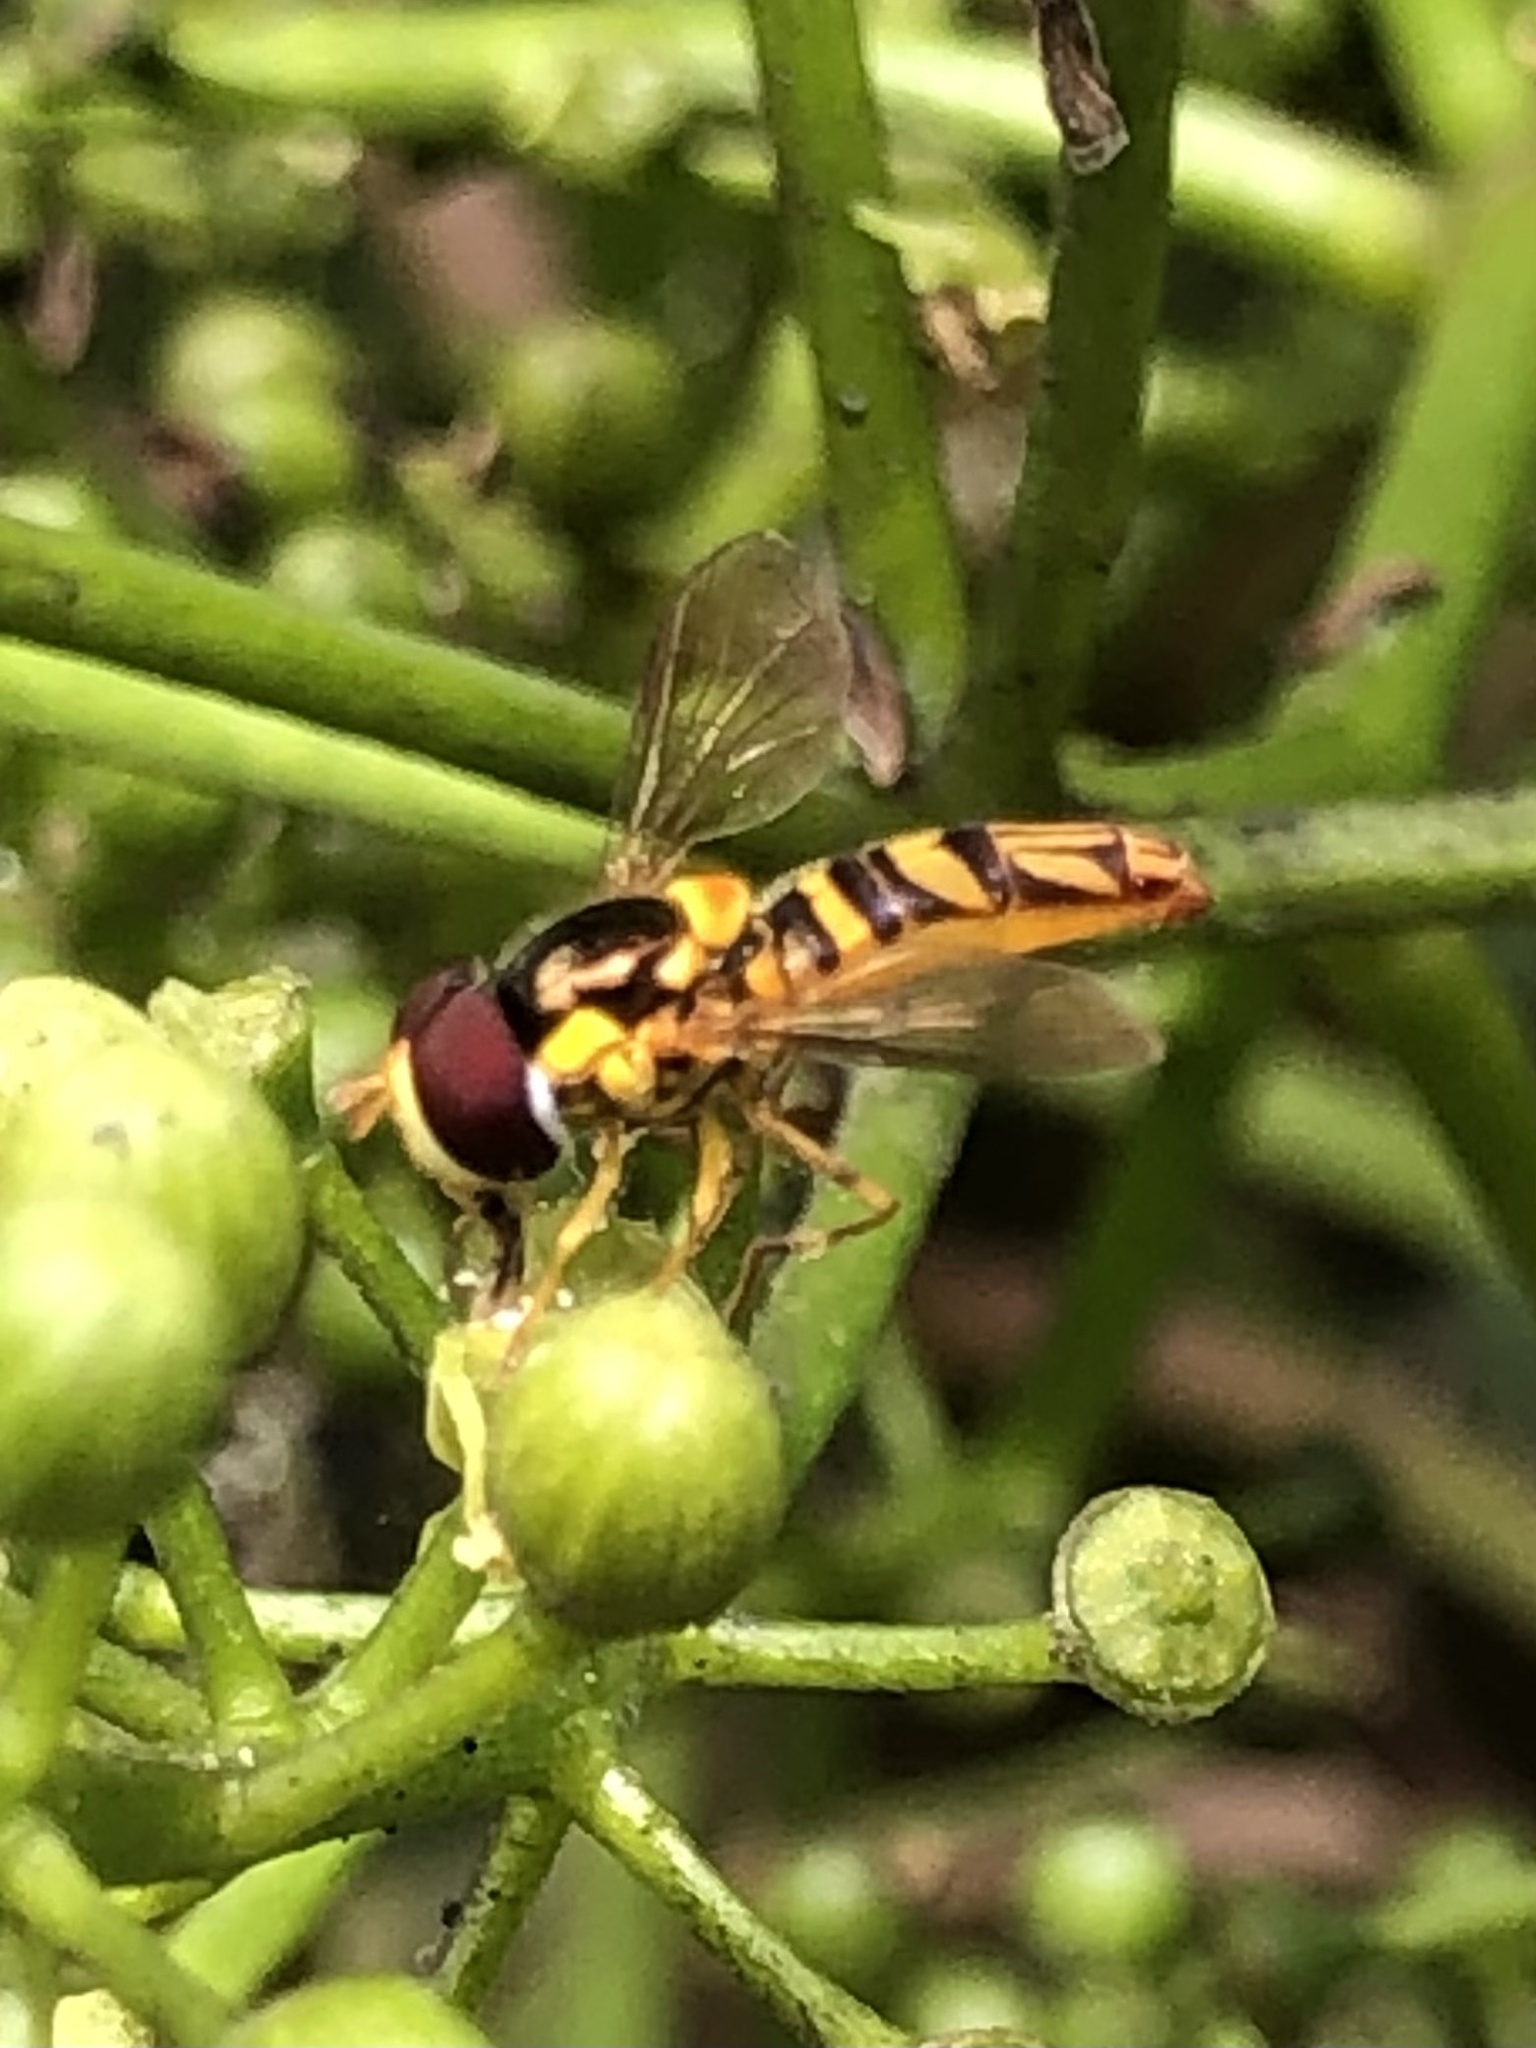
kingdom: Animalia
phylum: Arthropoda
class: Insecta
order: Diptera
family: Syrphidae
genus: Allograpta
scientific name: Allograpta obliqua
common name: Common oblique syrphid
